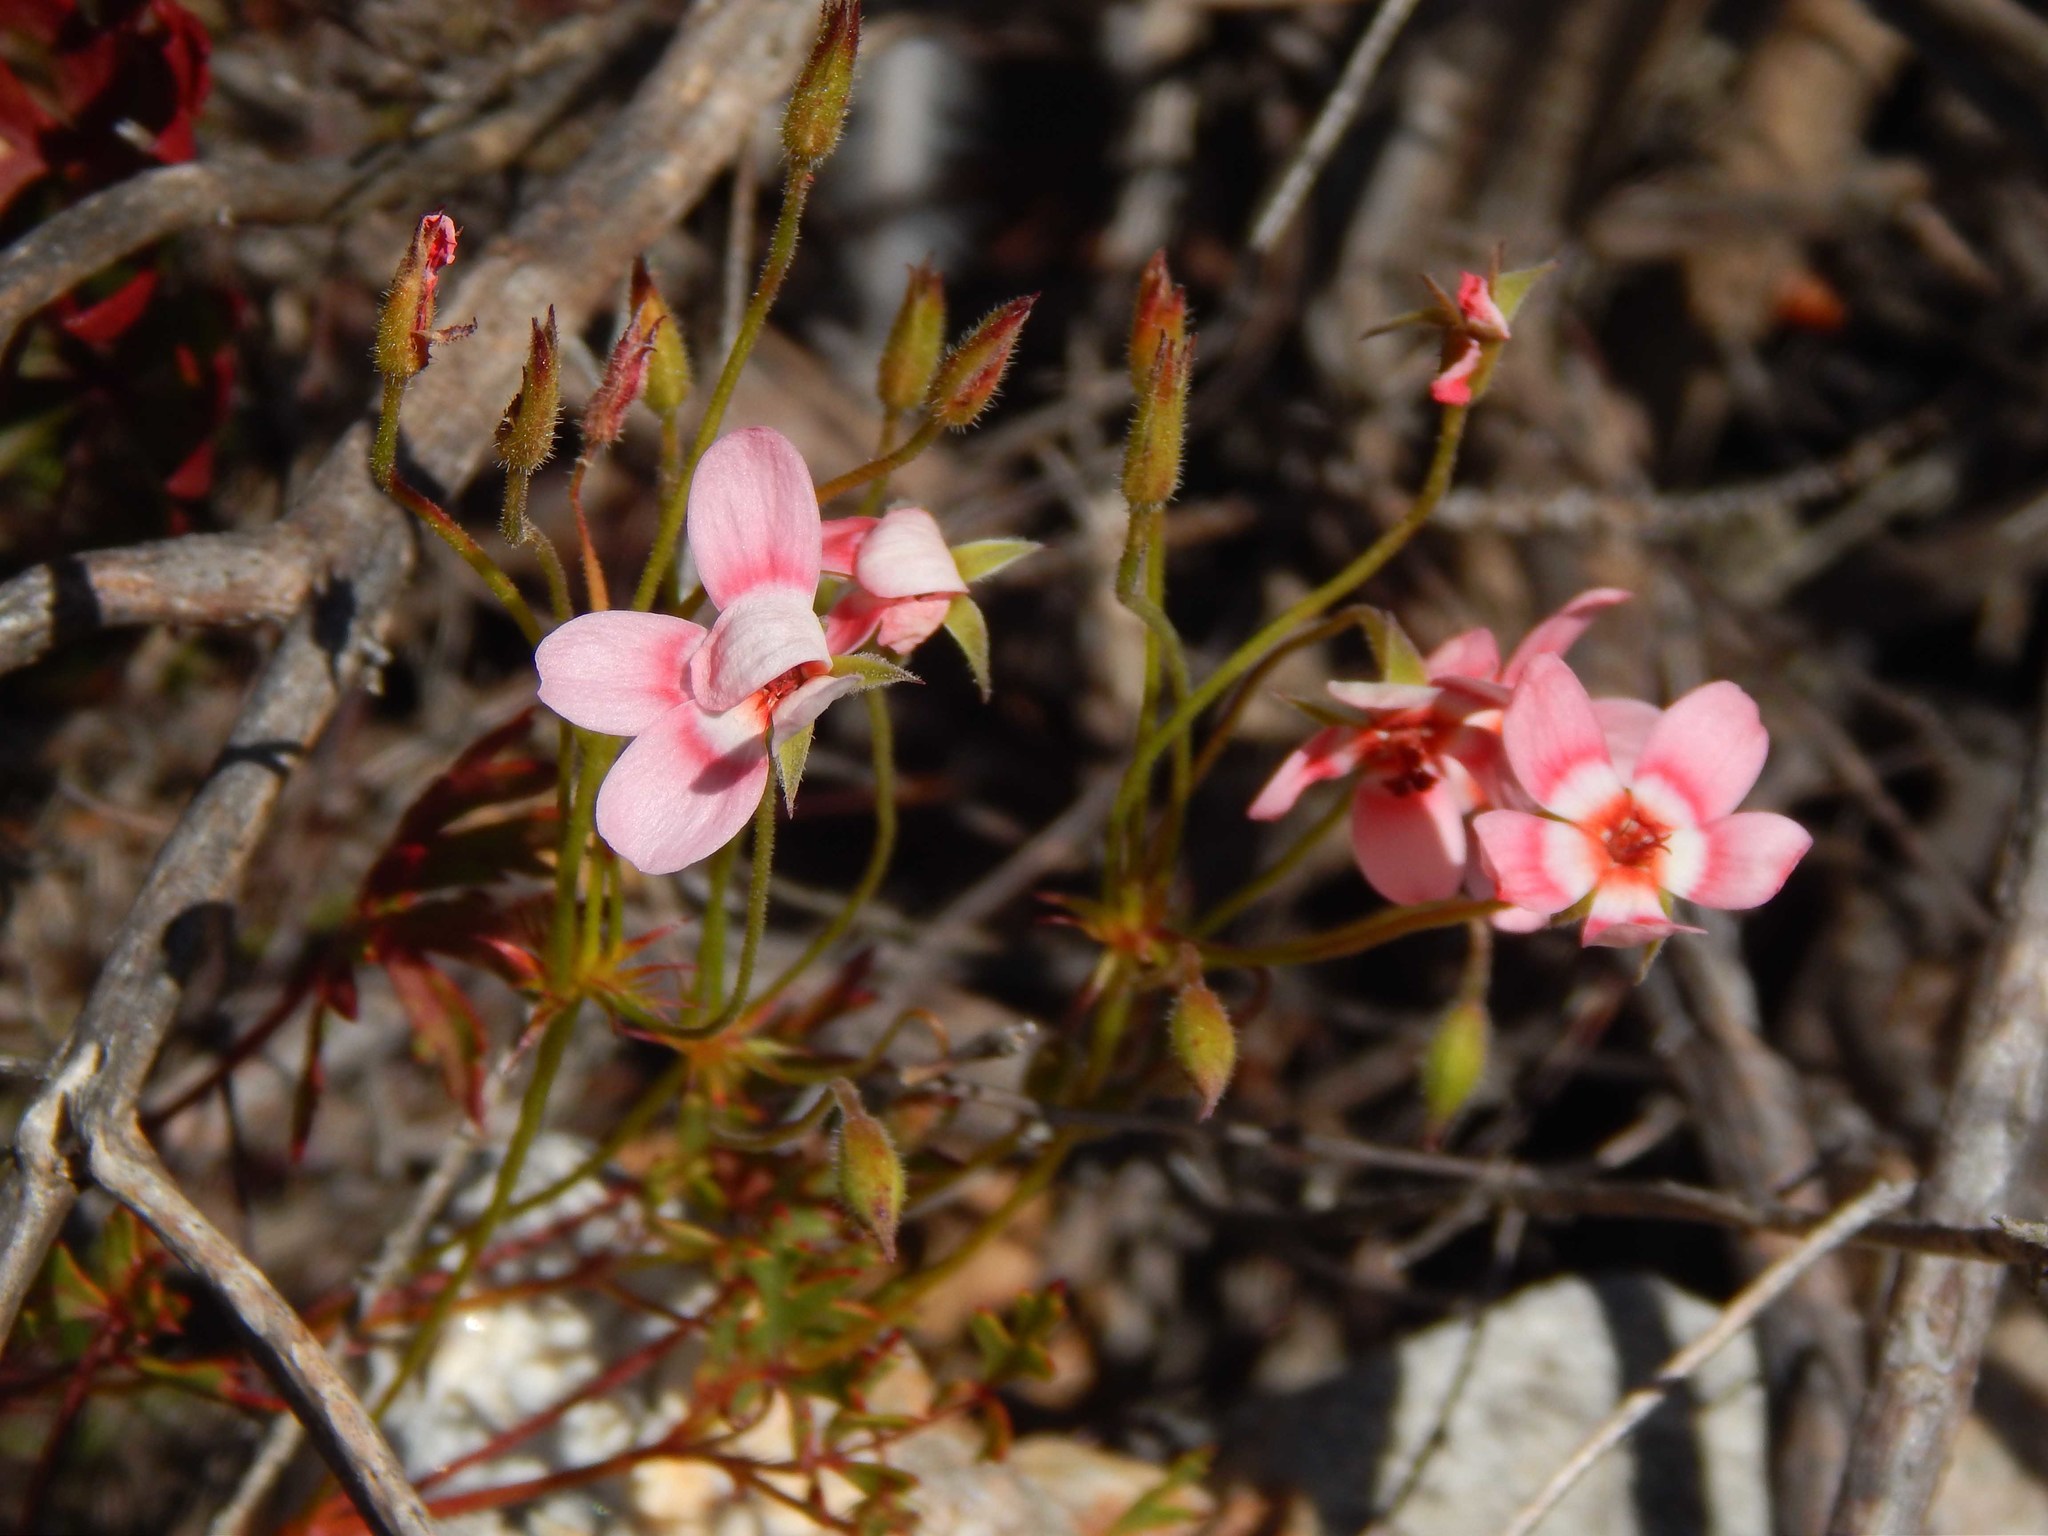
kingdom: Plantae
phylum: Tracheophyta
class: Magnoliopsida
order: Geraniales
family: Geraniaceae
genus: Pelargonium
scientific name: Pelargonium incarnatum
